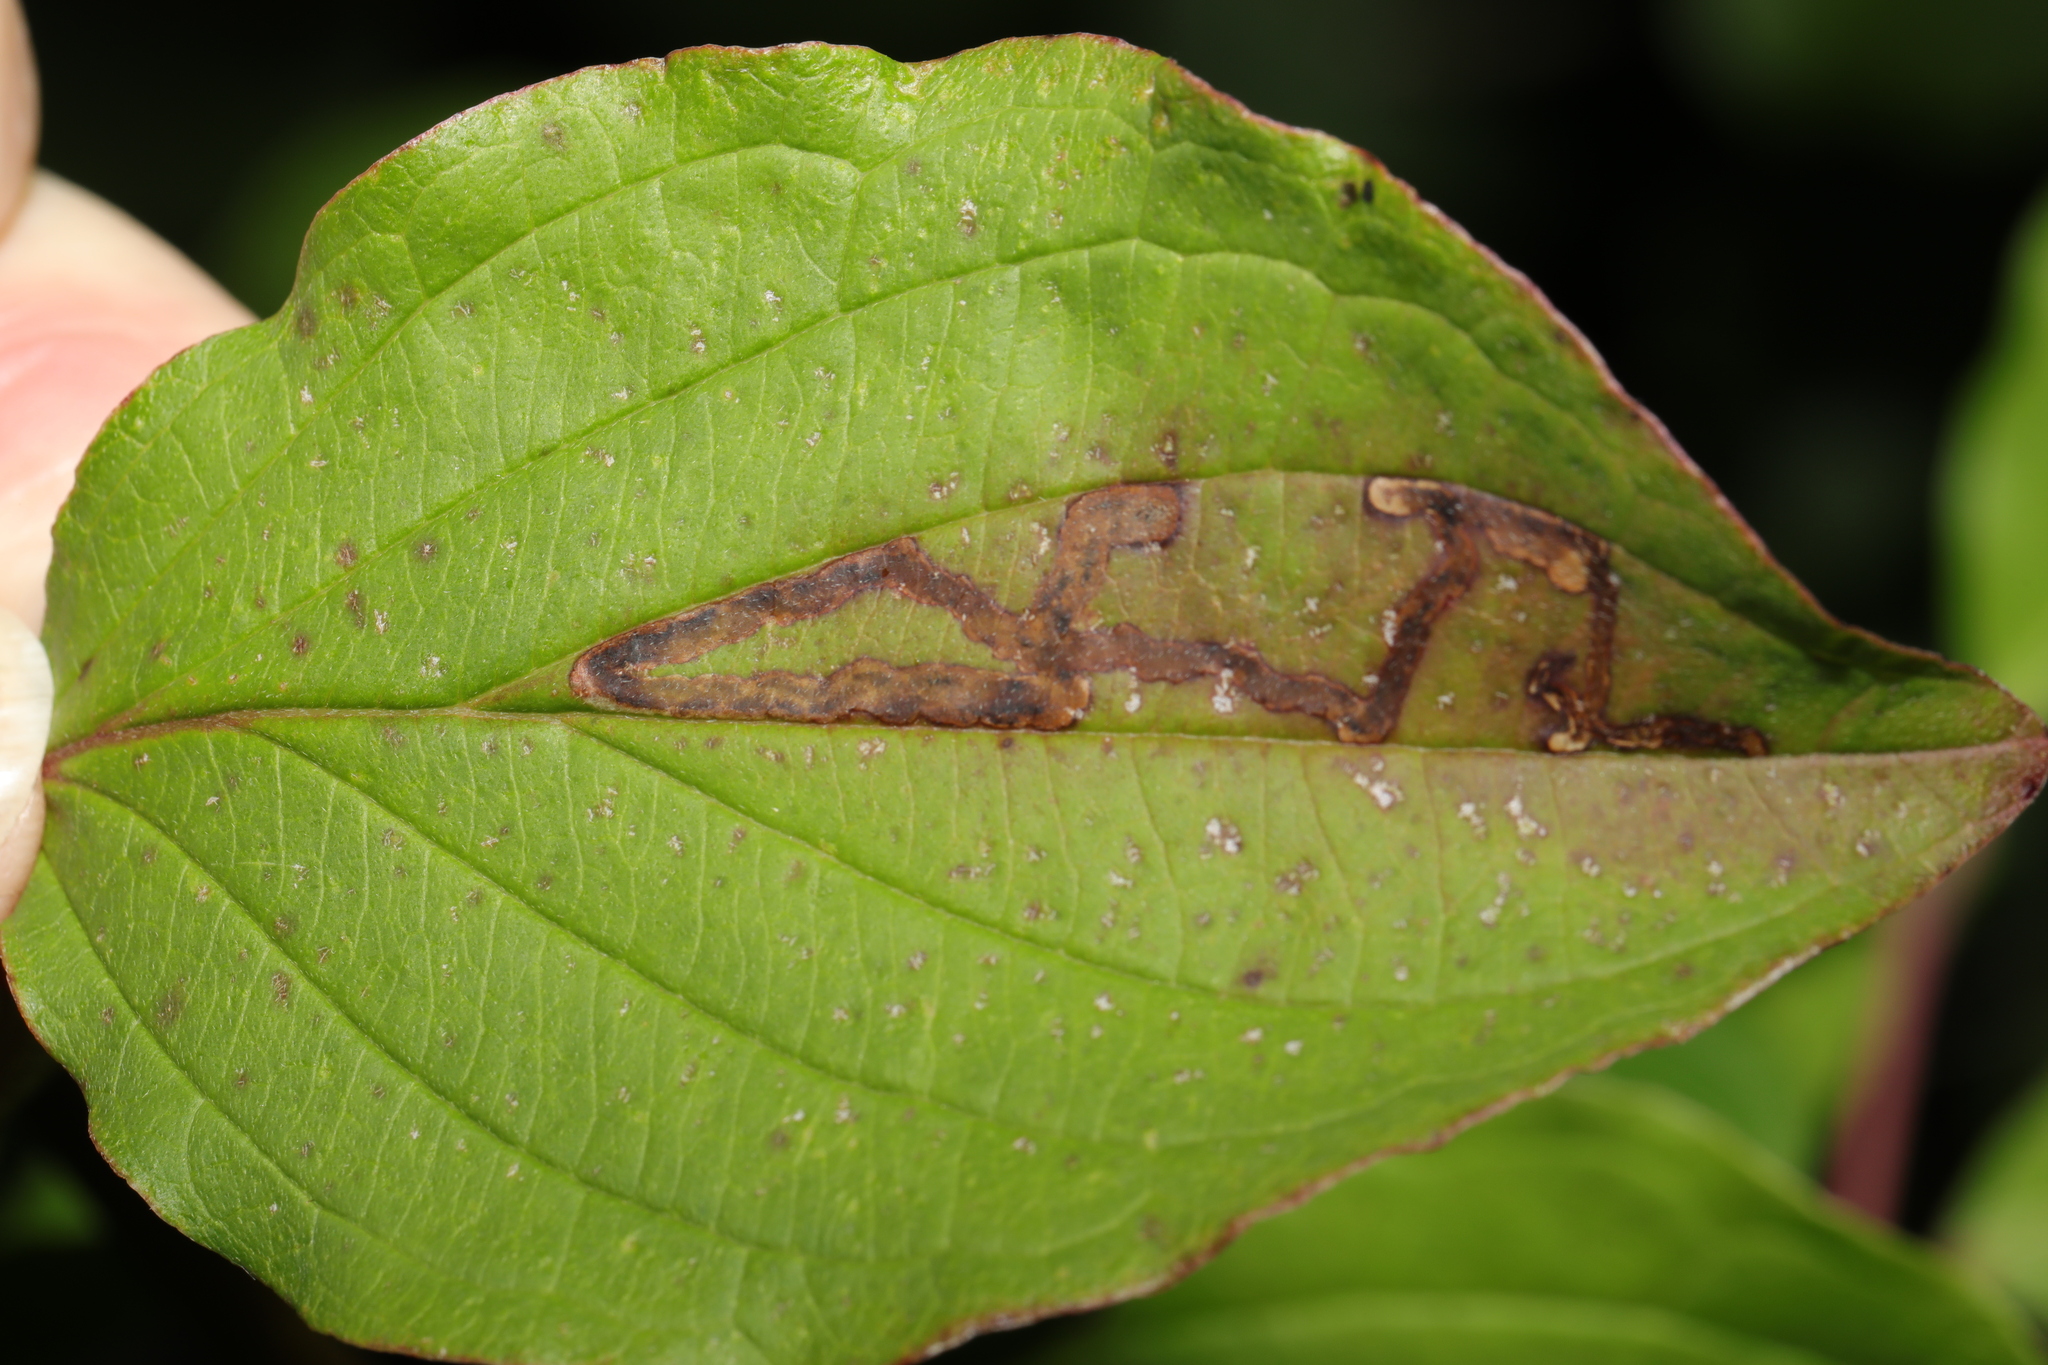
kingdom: Animalia
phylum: Arthropoda
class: Insecta
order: Diptera
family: Agromyzidae
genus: Phytomyza
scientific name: Phytomyza agromyzina
